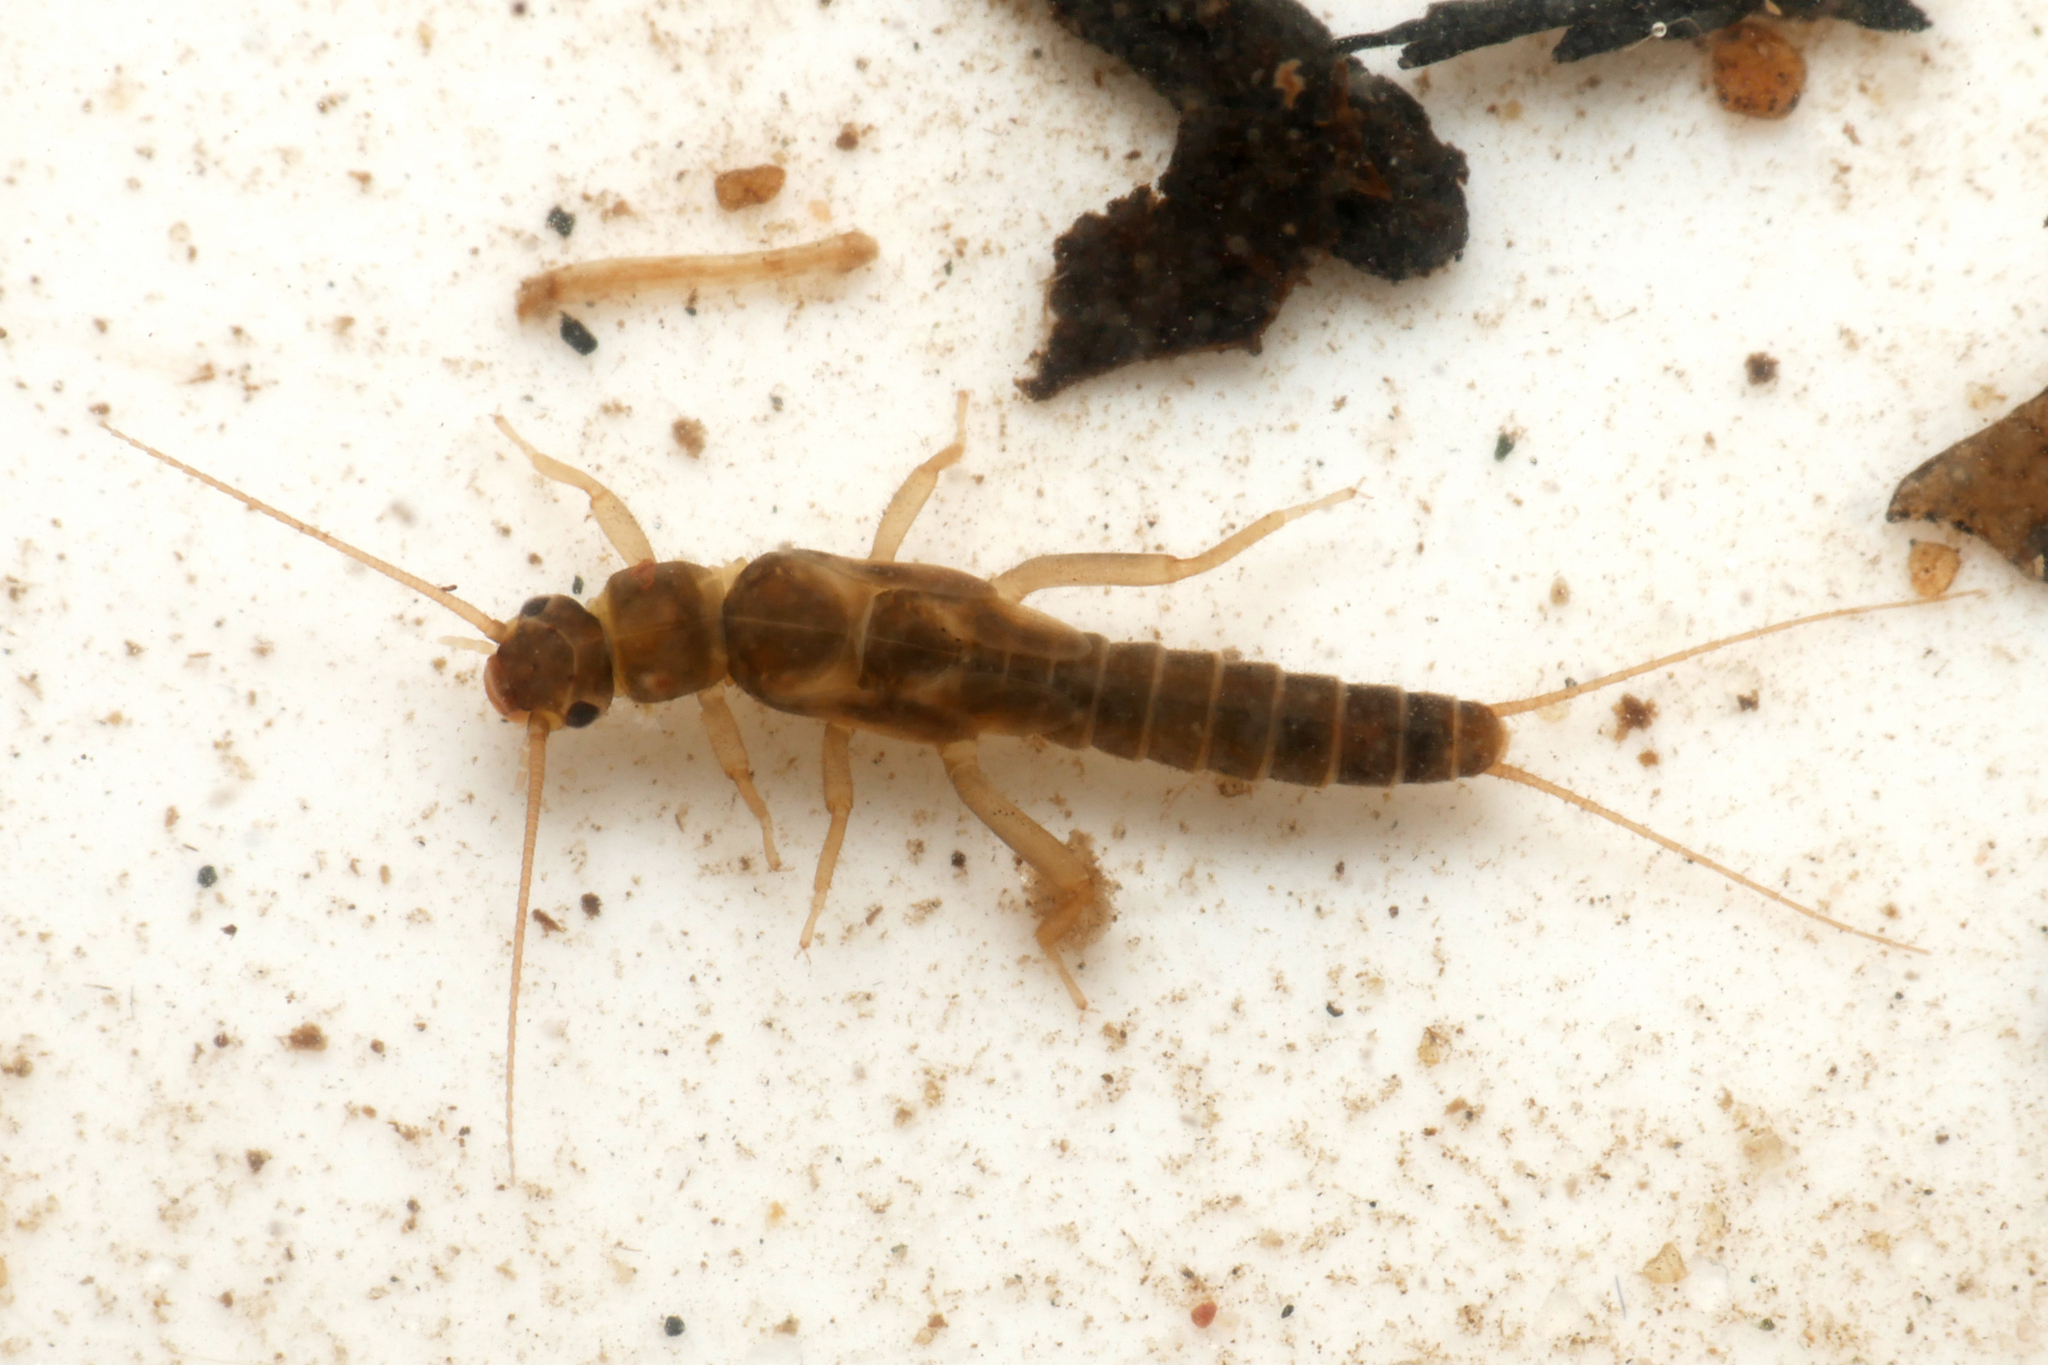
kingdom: Animalia
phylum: Arthropoda
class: Insecta
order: Plecoptera
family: Leuctridae
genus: Leuctra
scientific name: Leuctra hippopus
